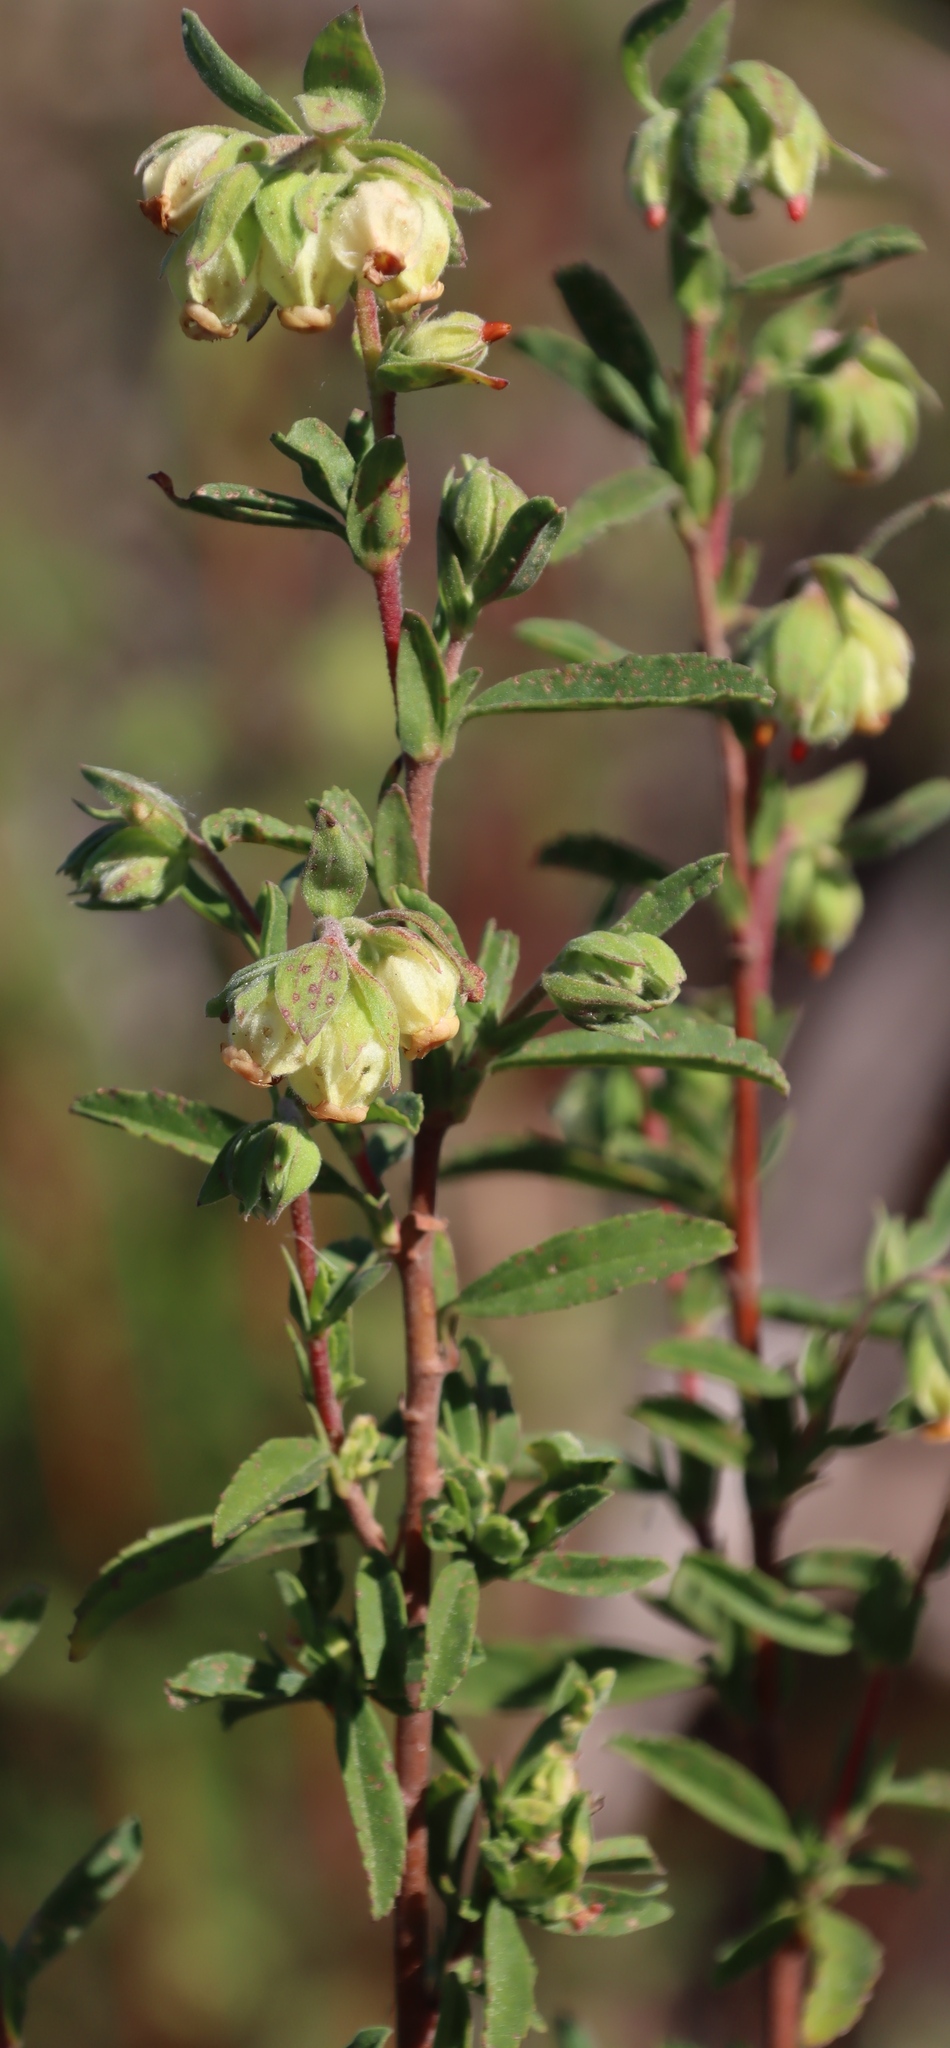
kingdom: Plantae
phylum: Tracheophyta
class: Magnoliopsida
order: Malvales
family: Malvaceae
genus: Hermannia
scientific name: Hermannia hyssopifolia
